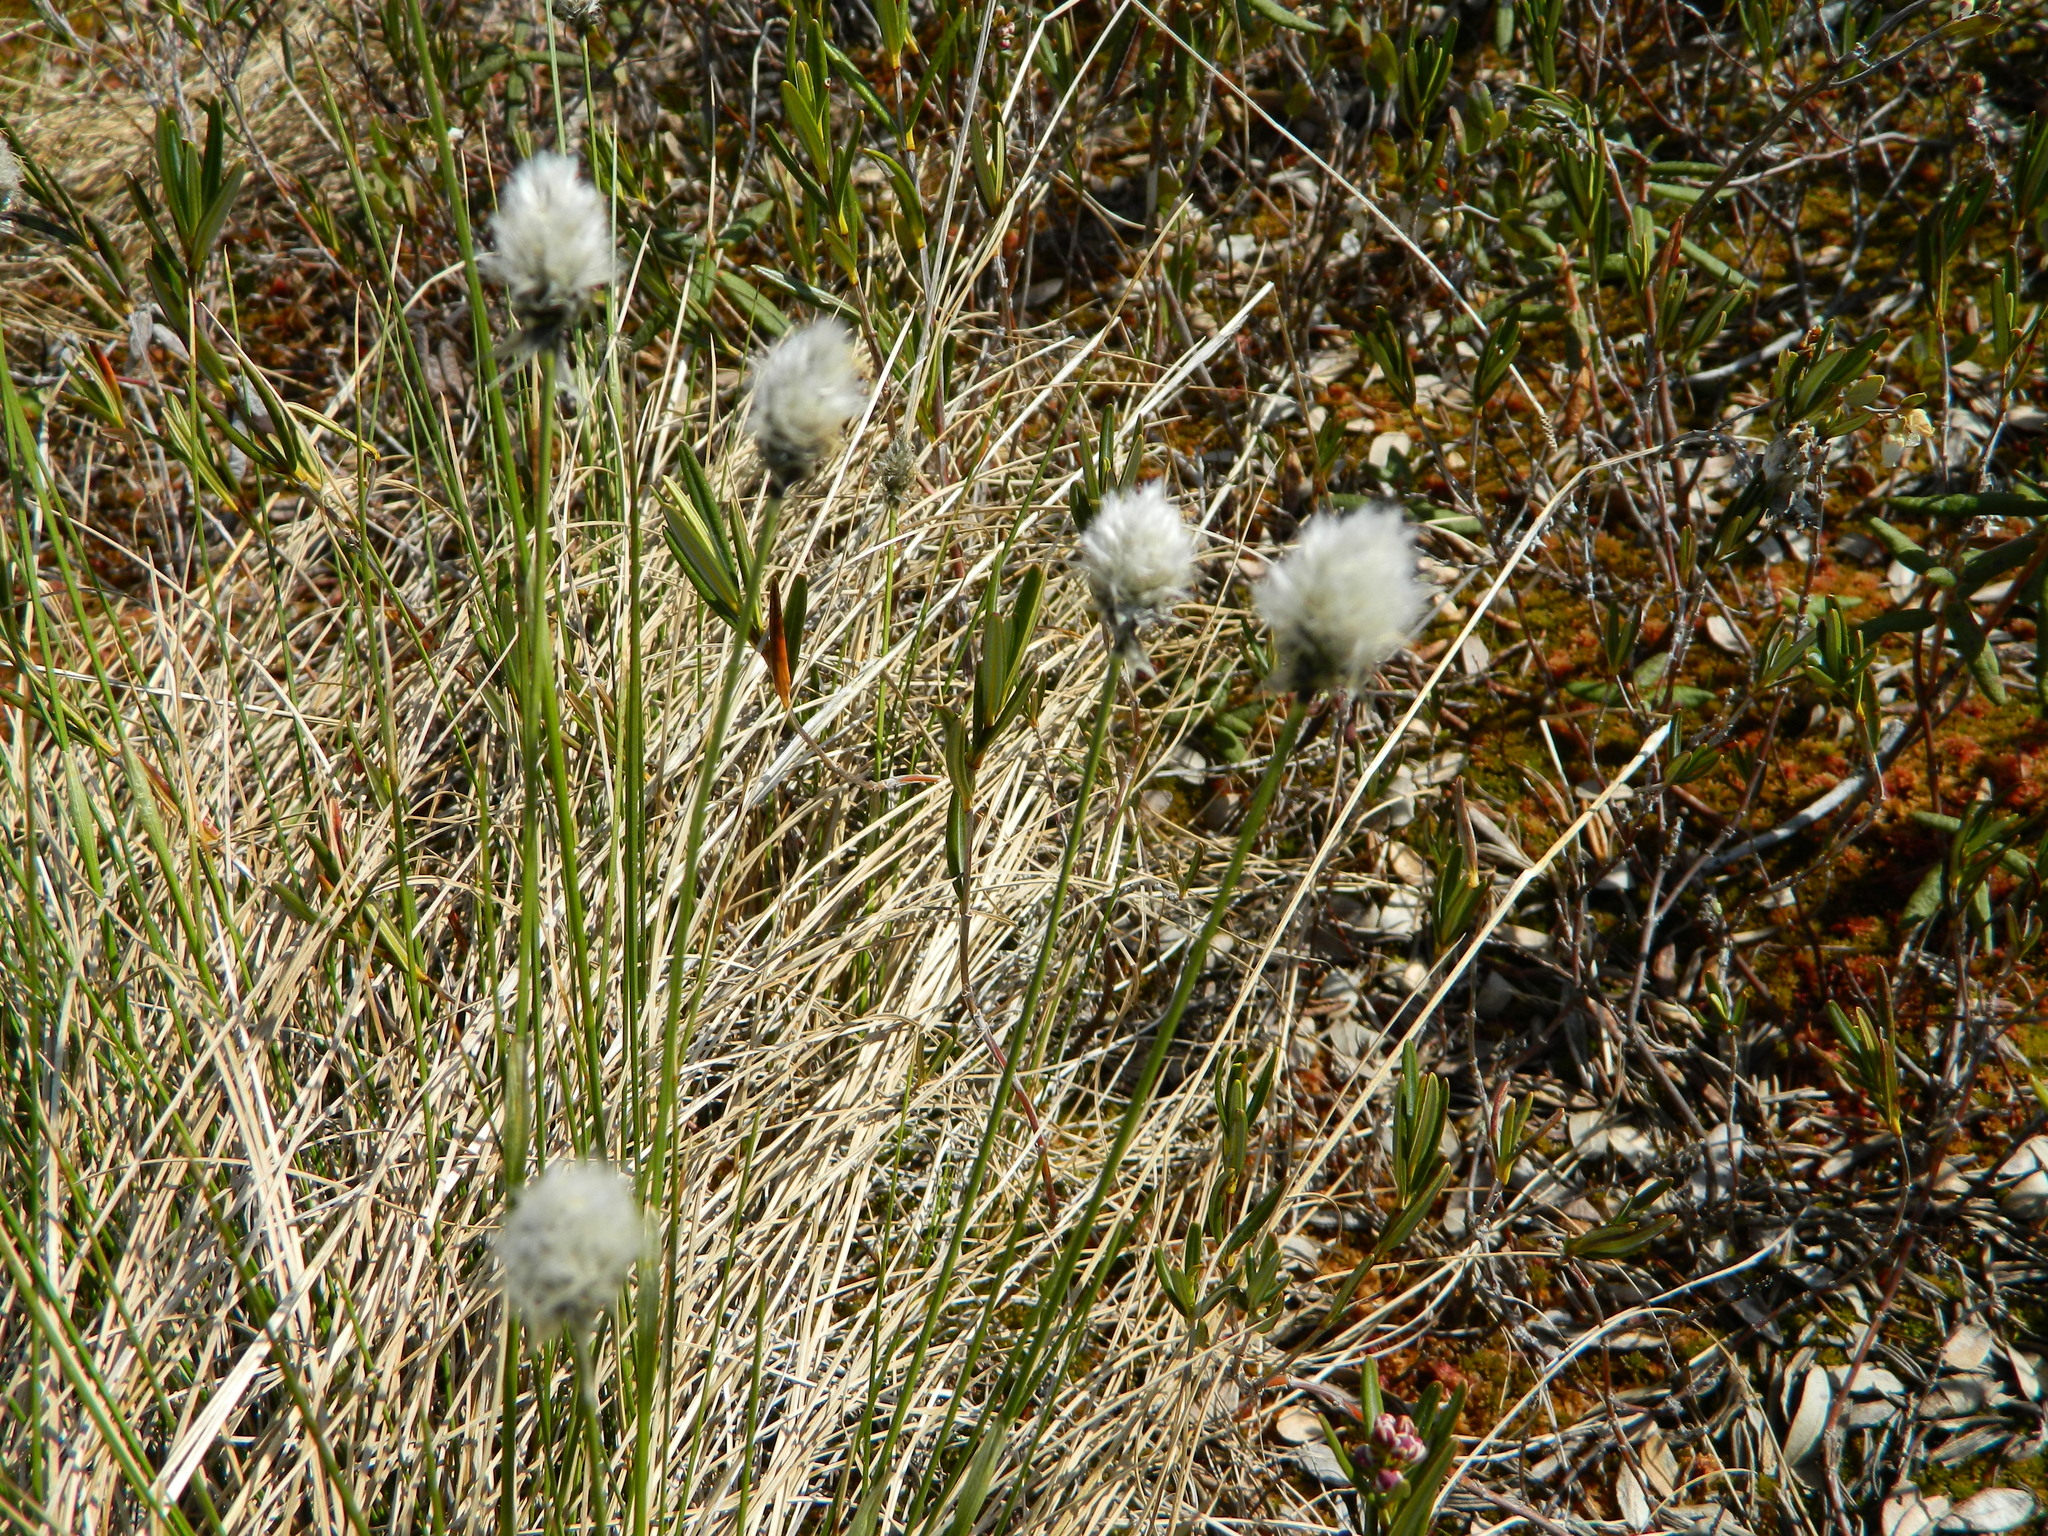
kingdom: Plantae
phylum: Tracheophyta
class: Liliopsida
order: Poales
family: Cyperaceae
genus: Eriophorum
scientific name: Eriophorum vaginatum
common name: Hare's-tail cottongrass
